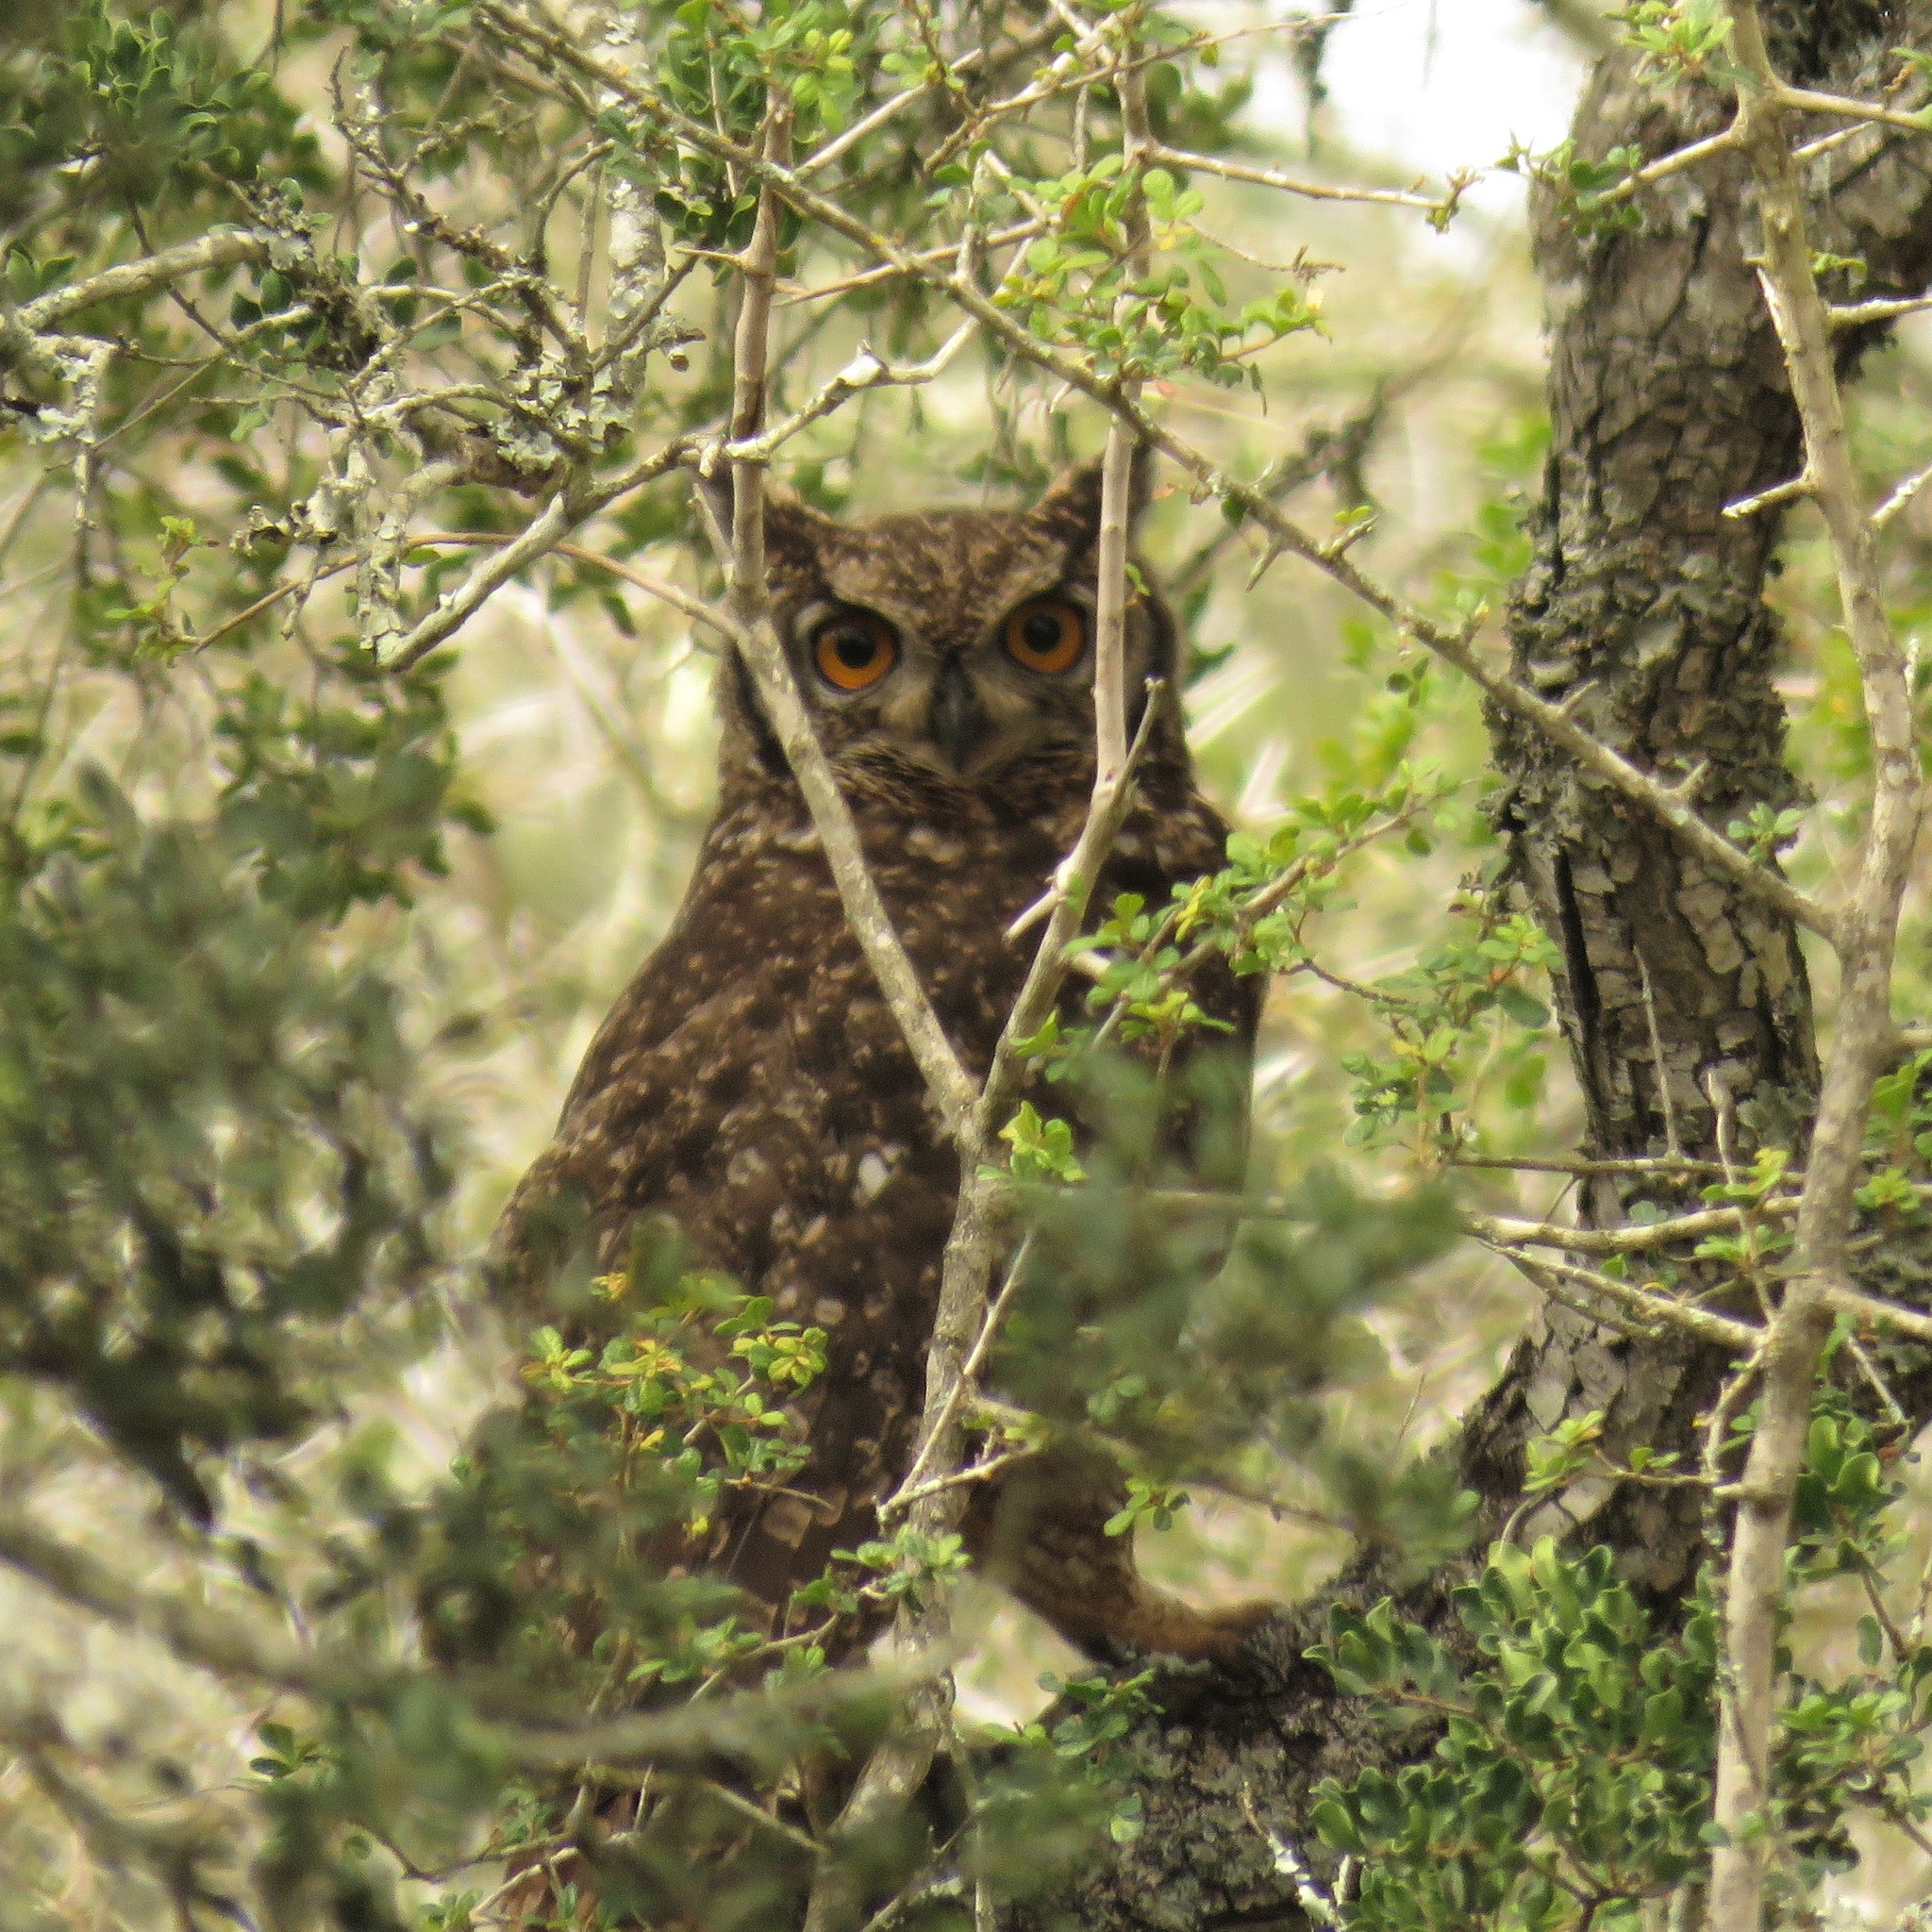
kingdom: Animalia
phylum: Chordata
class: Aves
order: Strigiformes
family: Strigidae
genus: Bubo
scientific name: Bubo africanus
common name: Spotted eagle-owl
